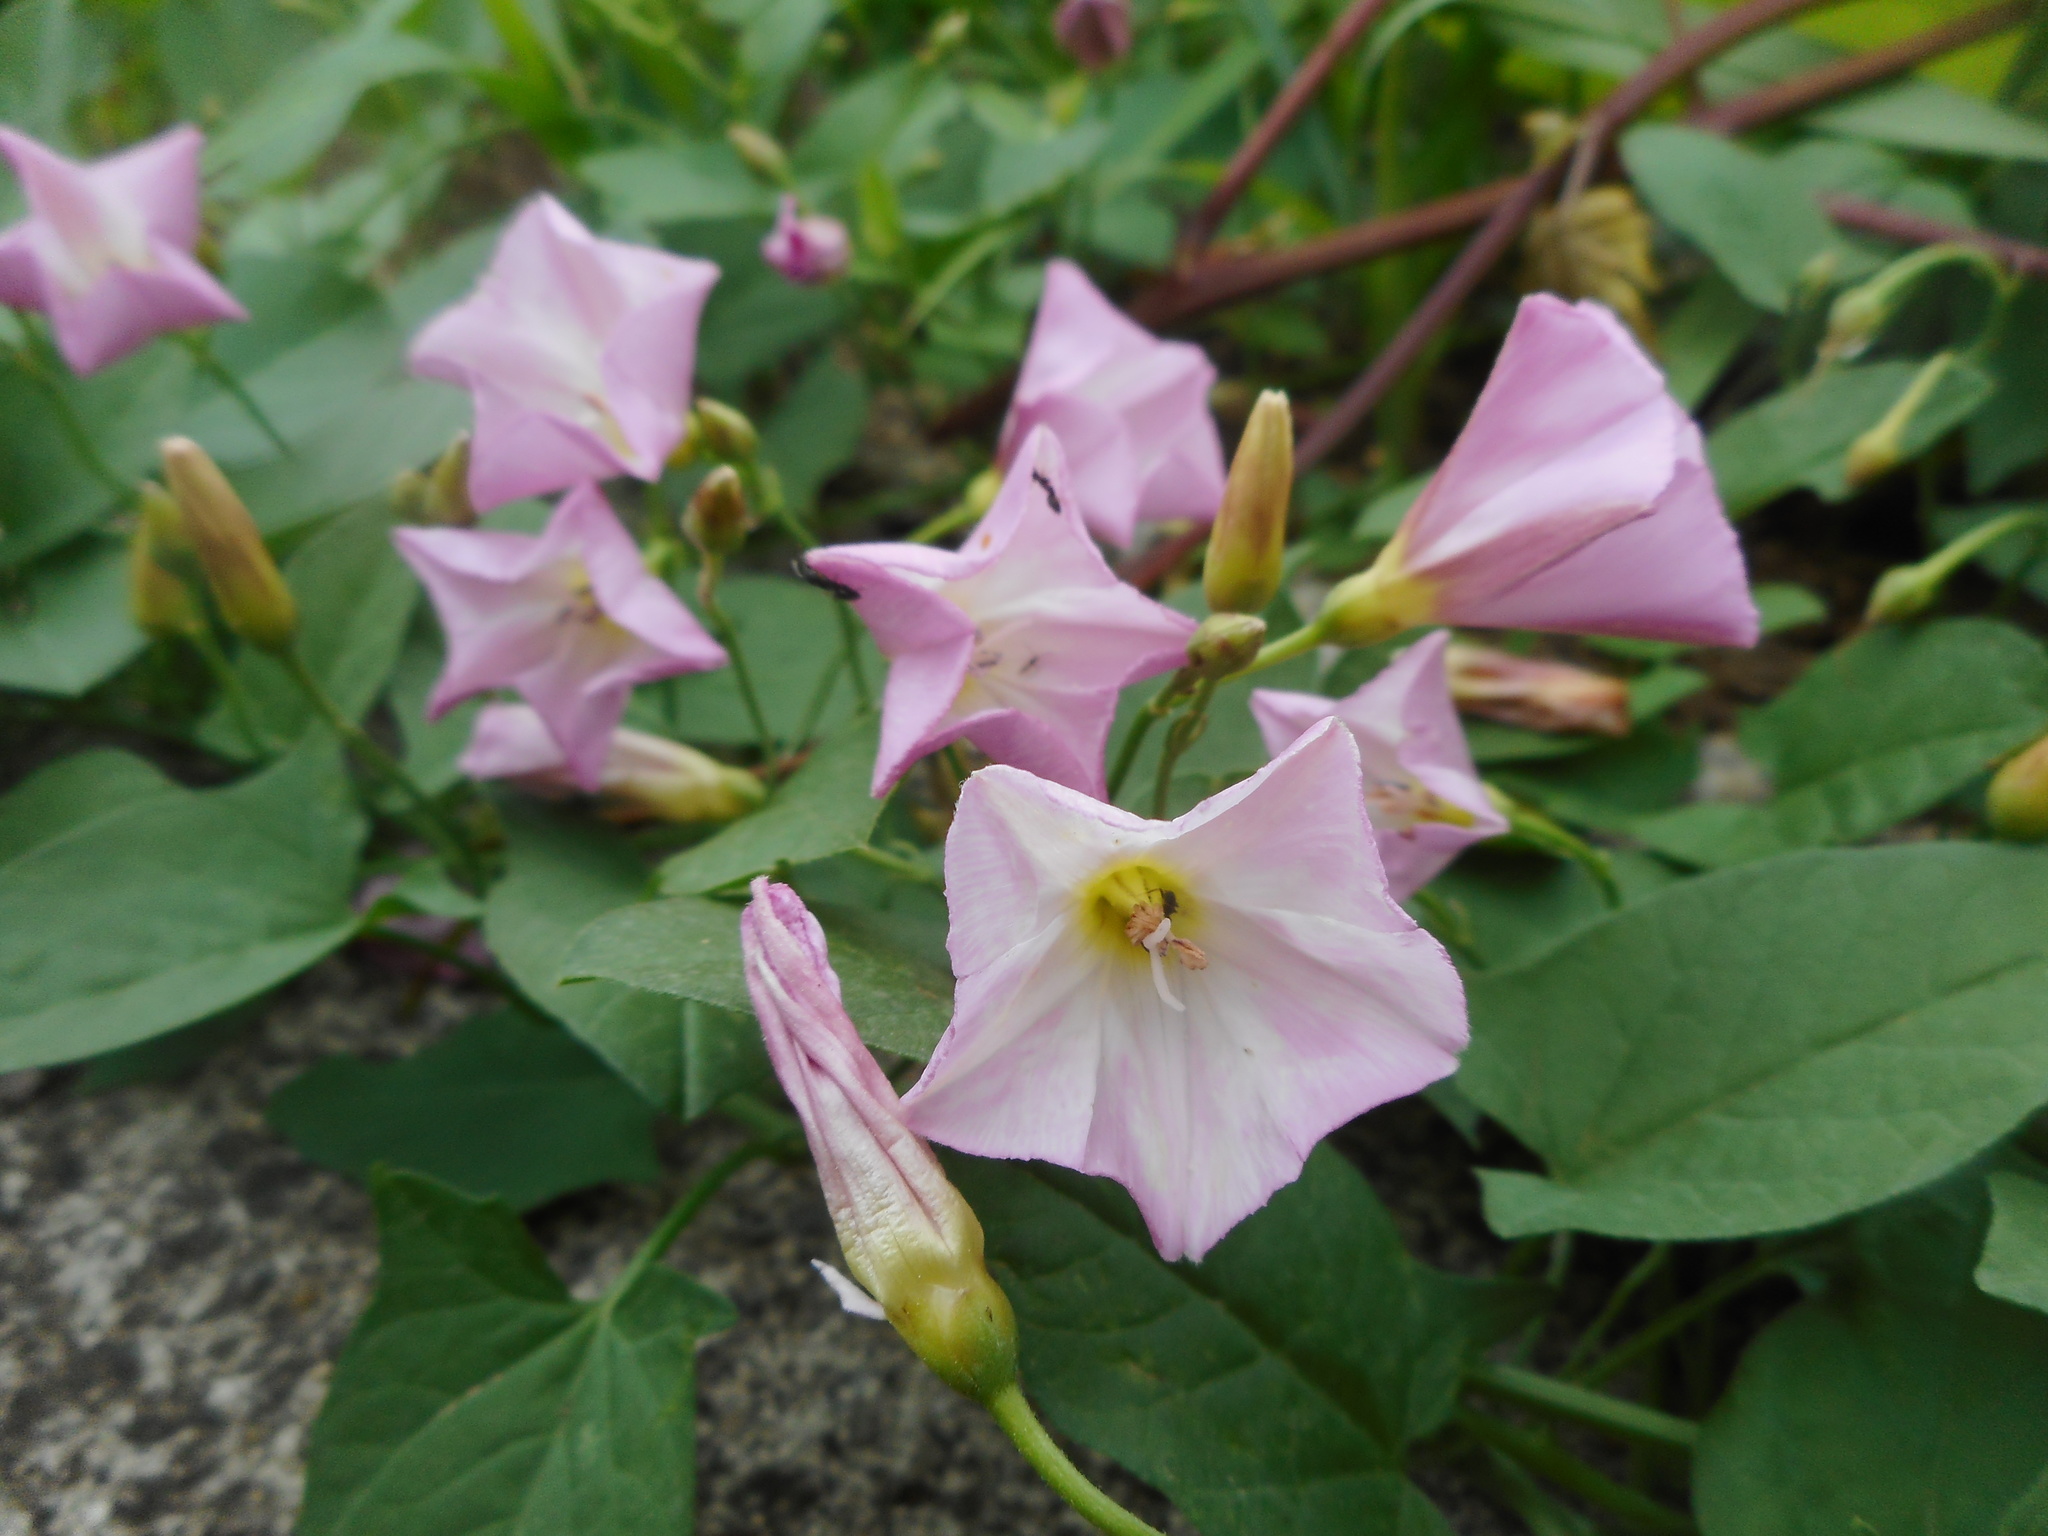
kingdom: Plantae
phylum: Tracheophyta
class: Magnoliopsida
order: Solanales
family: Convolvulaceae
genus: Convolvulus
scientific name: Convolvulus arvensis
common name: Field bindweed
